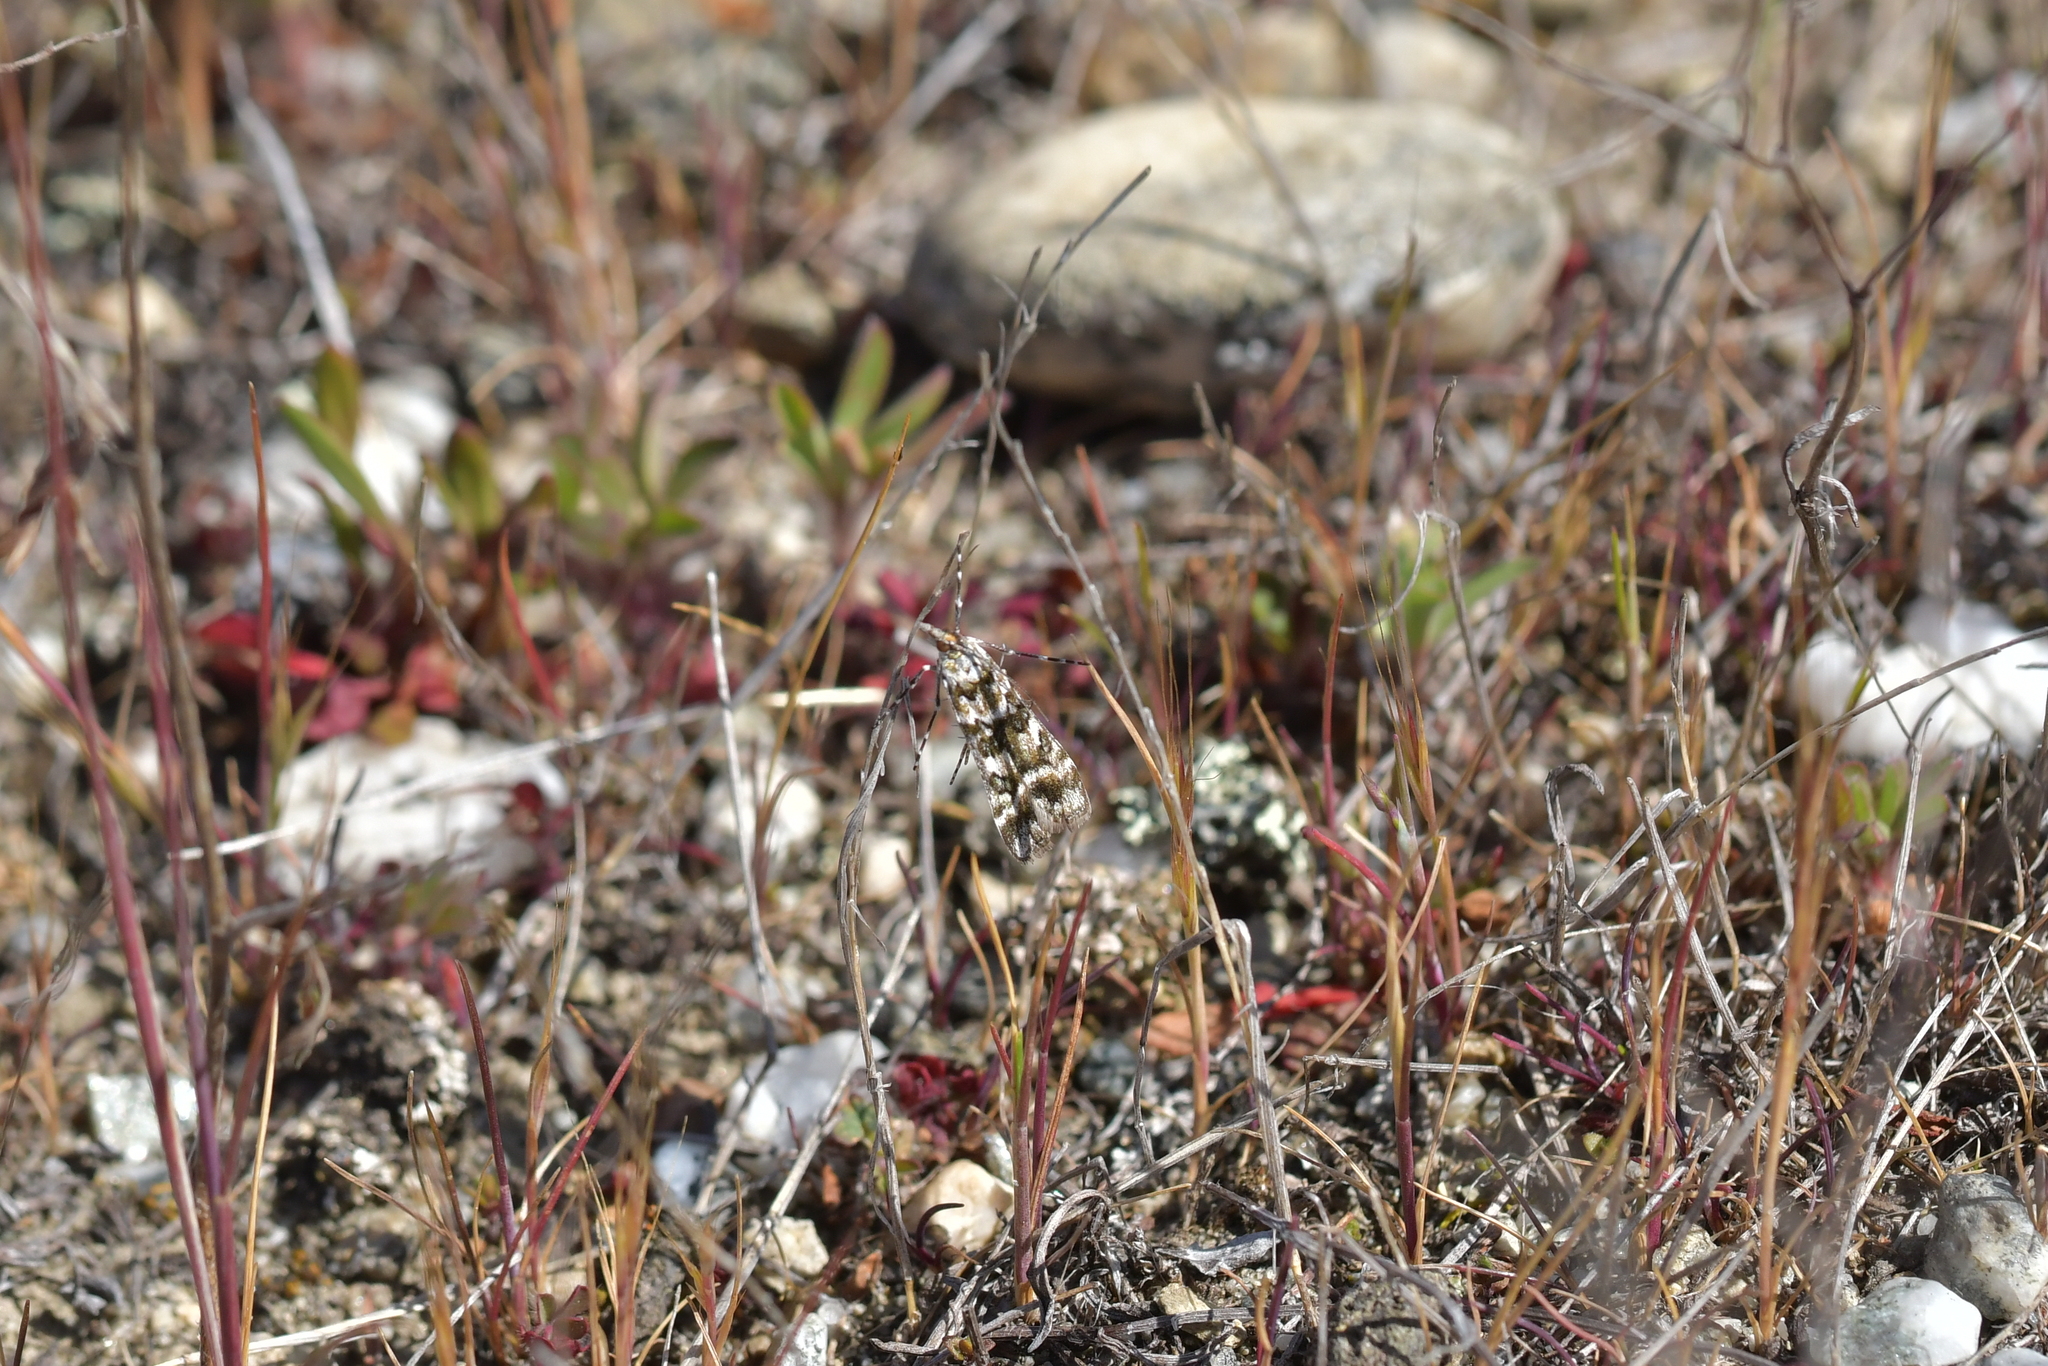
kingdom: Animalia
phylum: Arthropoda
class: Insecta
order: Lepidoptera
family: Crambidae
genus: Eudonia
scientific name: Eudonia gyrotoma
